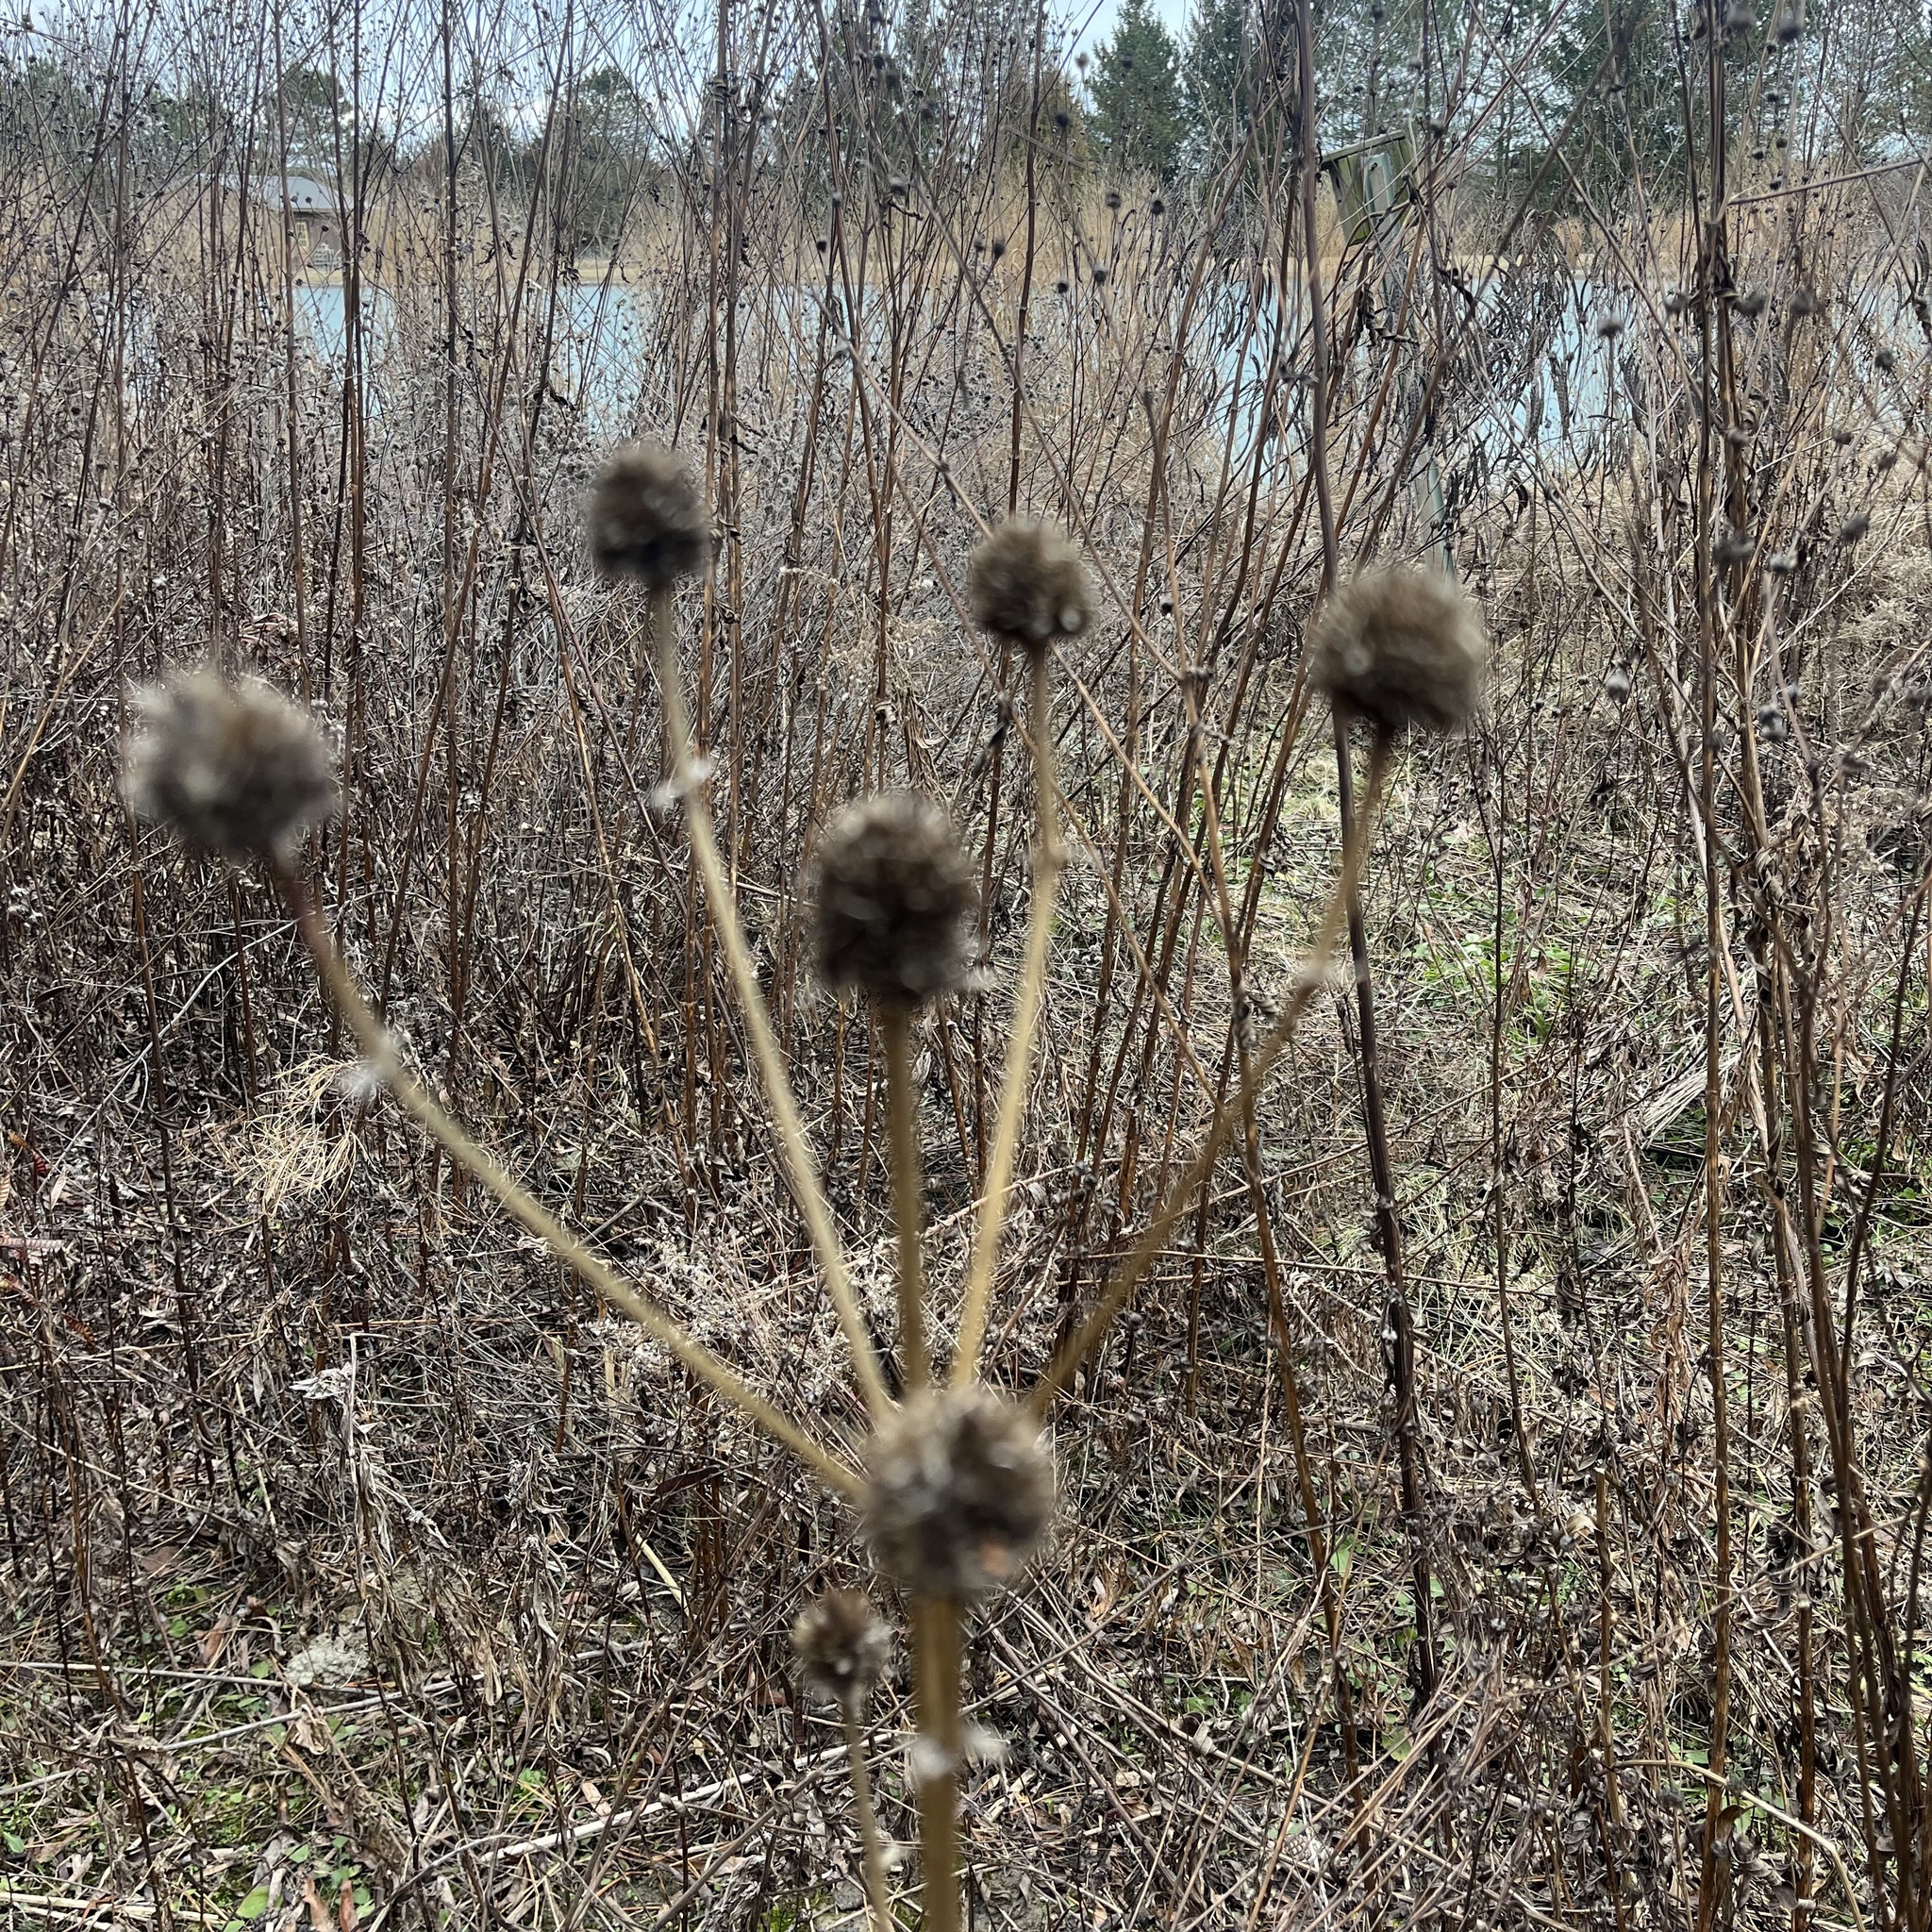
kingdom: Plantae
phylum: Tracheophyta
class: Magnoliopsida
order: Apiales
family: Apiaceae
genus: Eryngium
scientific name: Eryngium yuccifolium
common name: Button eryngo
